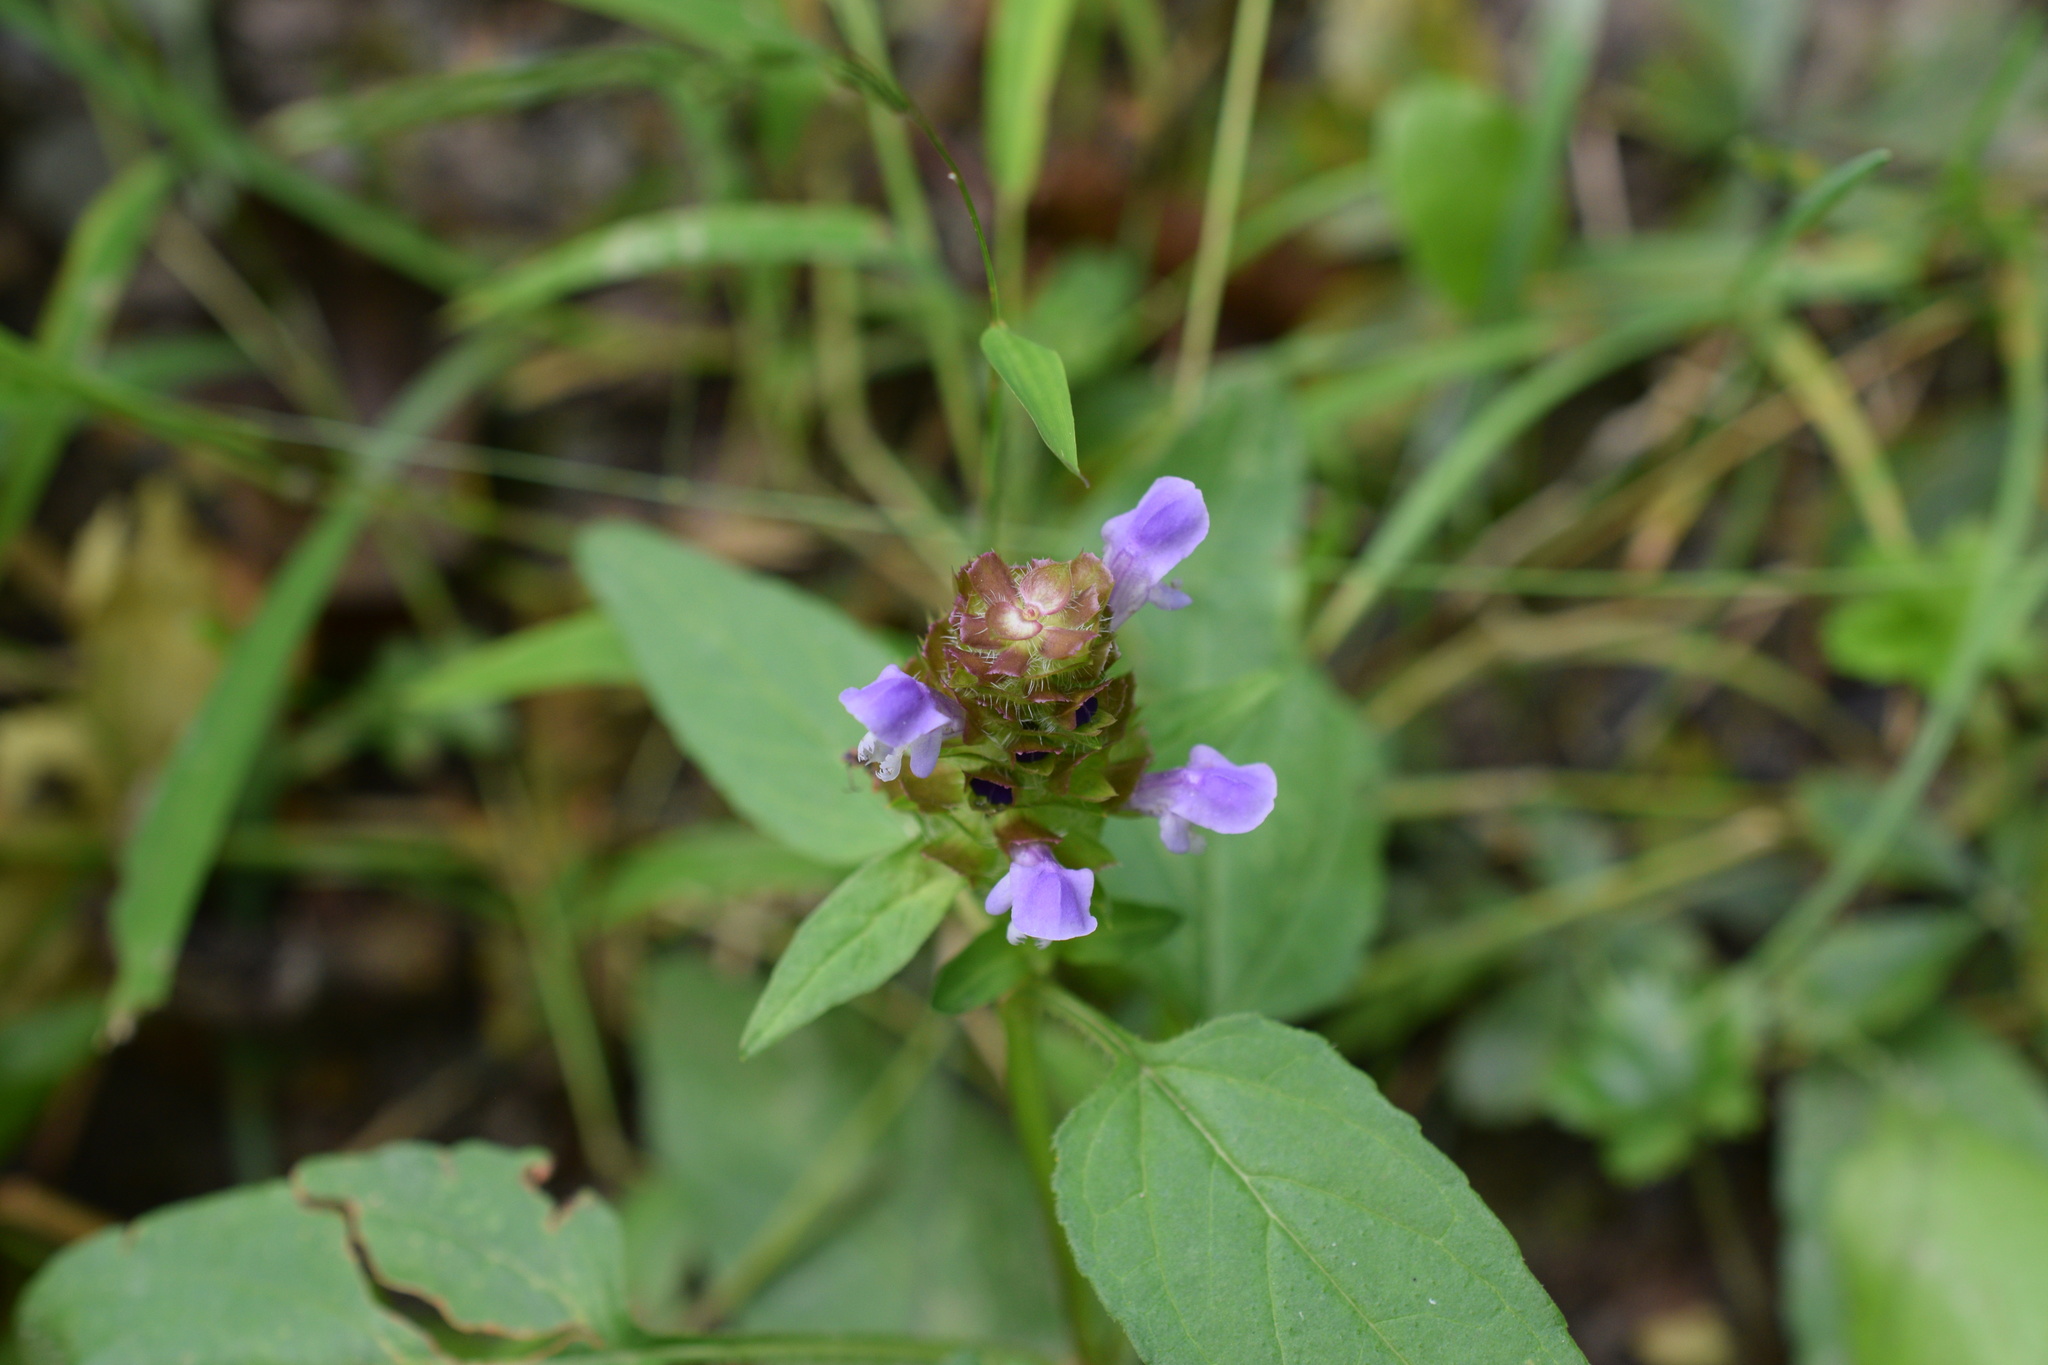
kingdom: Plantae
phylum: Tracheophyta
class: Magnoliopsida
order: Lamiales
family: Lamiaceae
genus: Prunella
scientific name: Prunella vulgaris
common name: Heal-all
